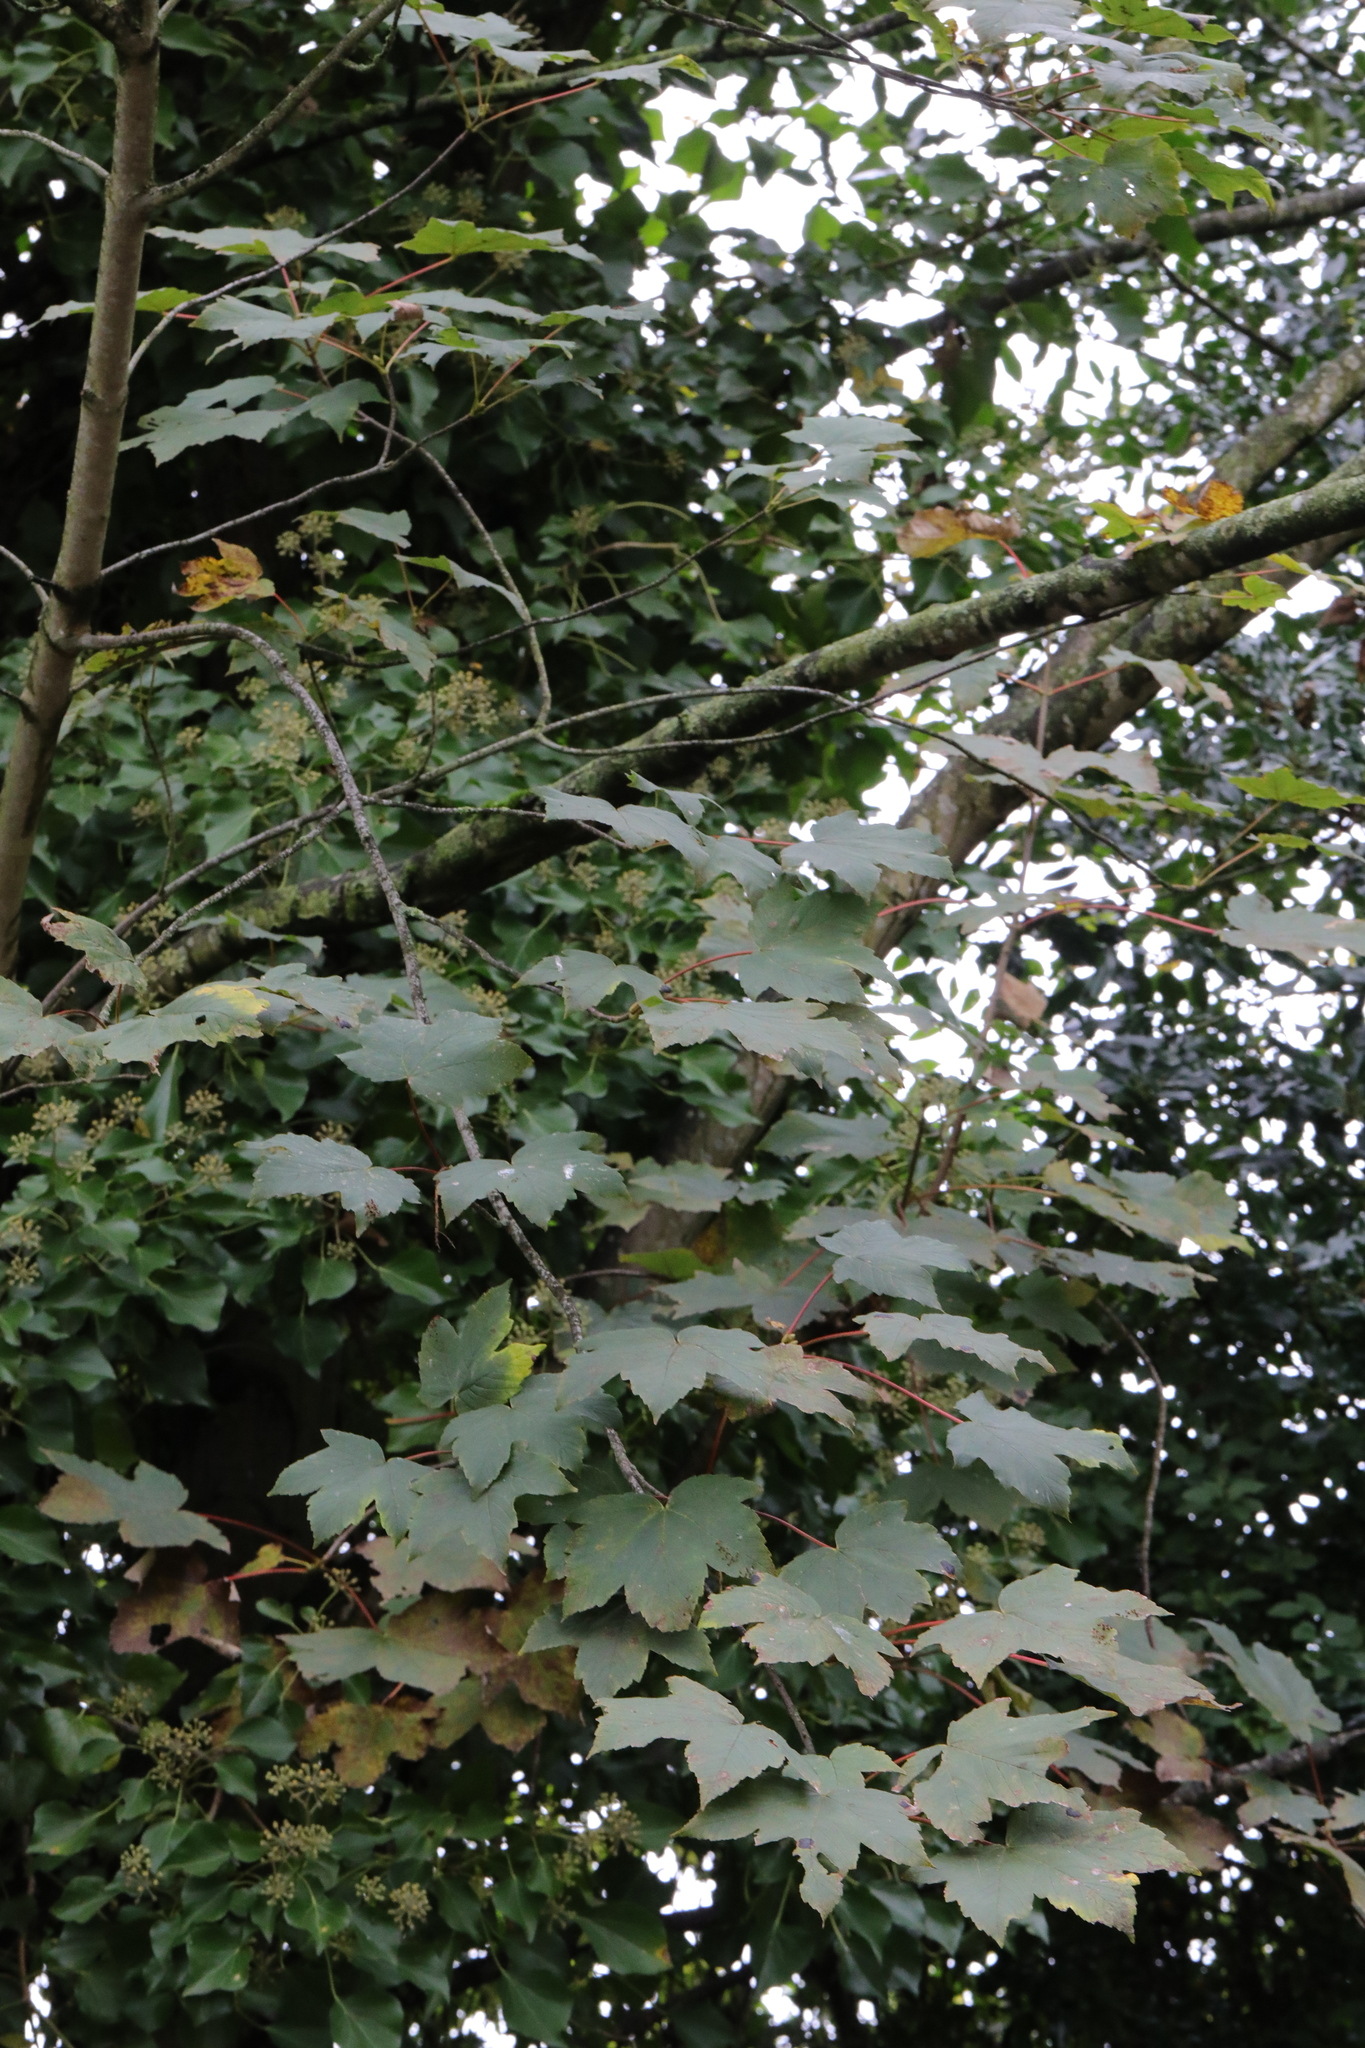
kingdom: Plantae
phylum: Tracheophyta
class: Magnoliopsida
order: Sapindales
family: Sapindaceae
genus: Acer
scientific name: Acer pseudoplatanus
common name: Sycamore
